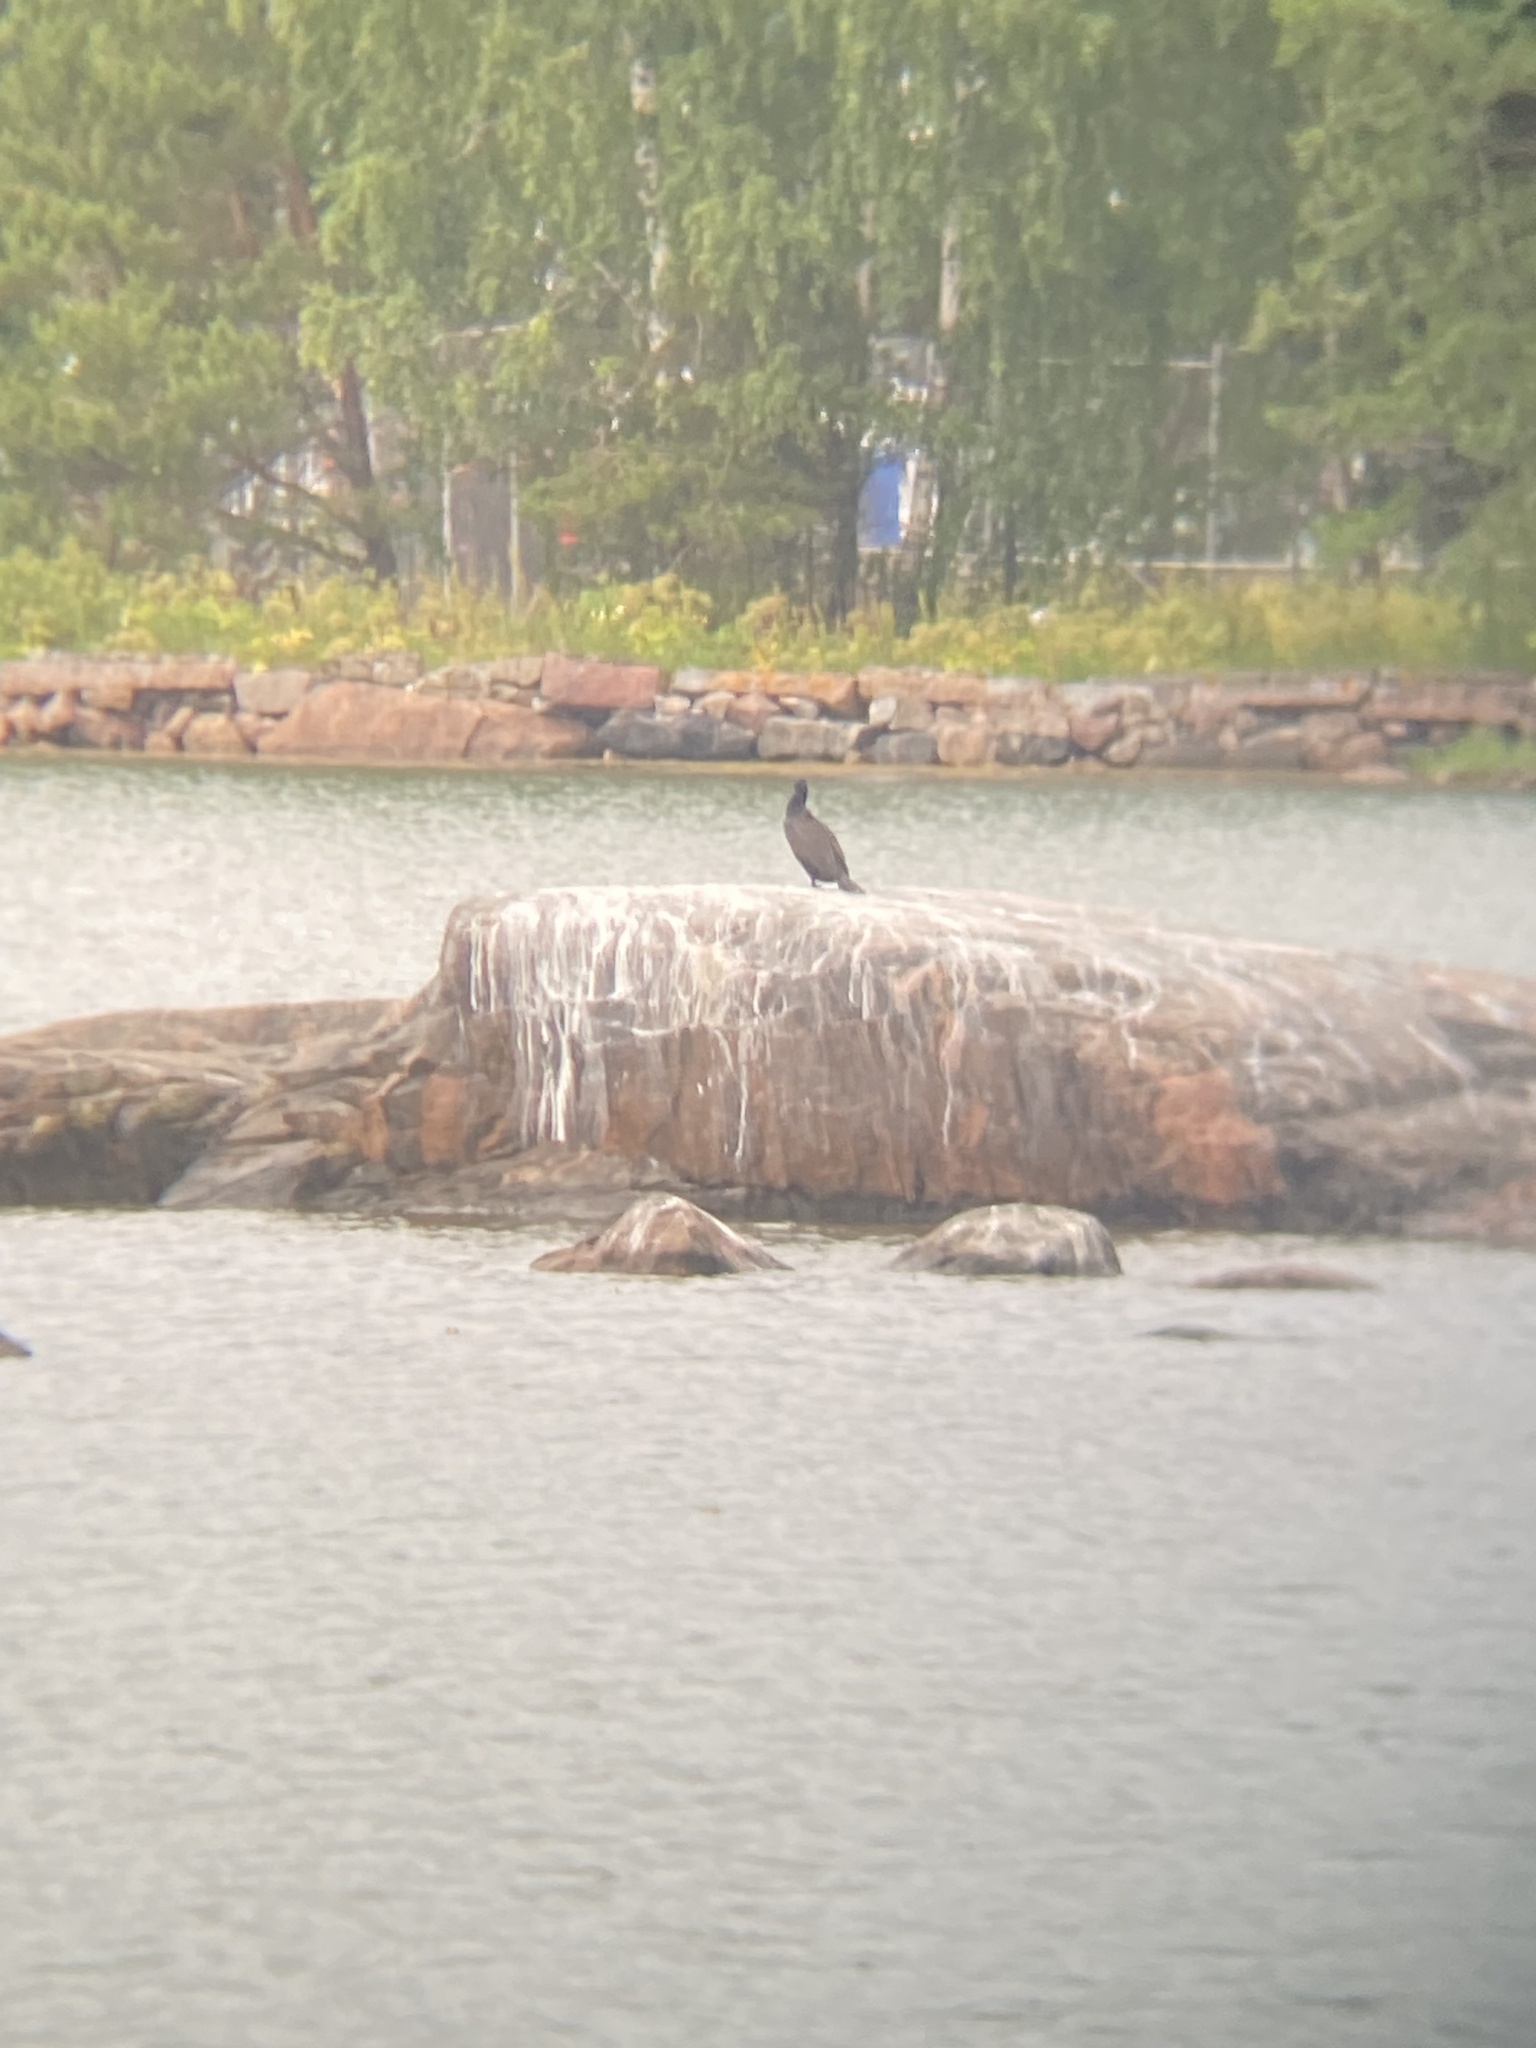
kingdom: Animalia
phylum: Chordata
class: Aves
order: Suliformes
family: Phalacrocoracidae
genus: Phalacrocorax
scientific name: Phalacrocorax carbo
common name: Great cormorant
